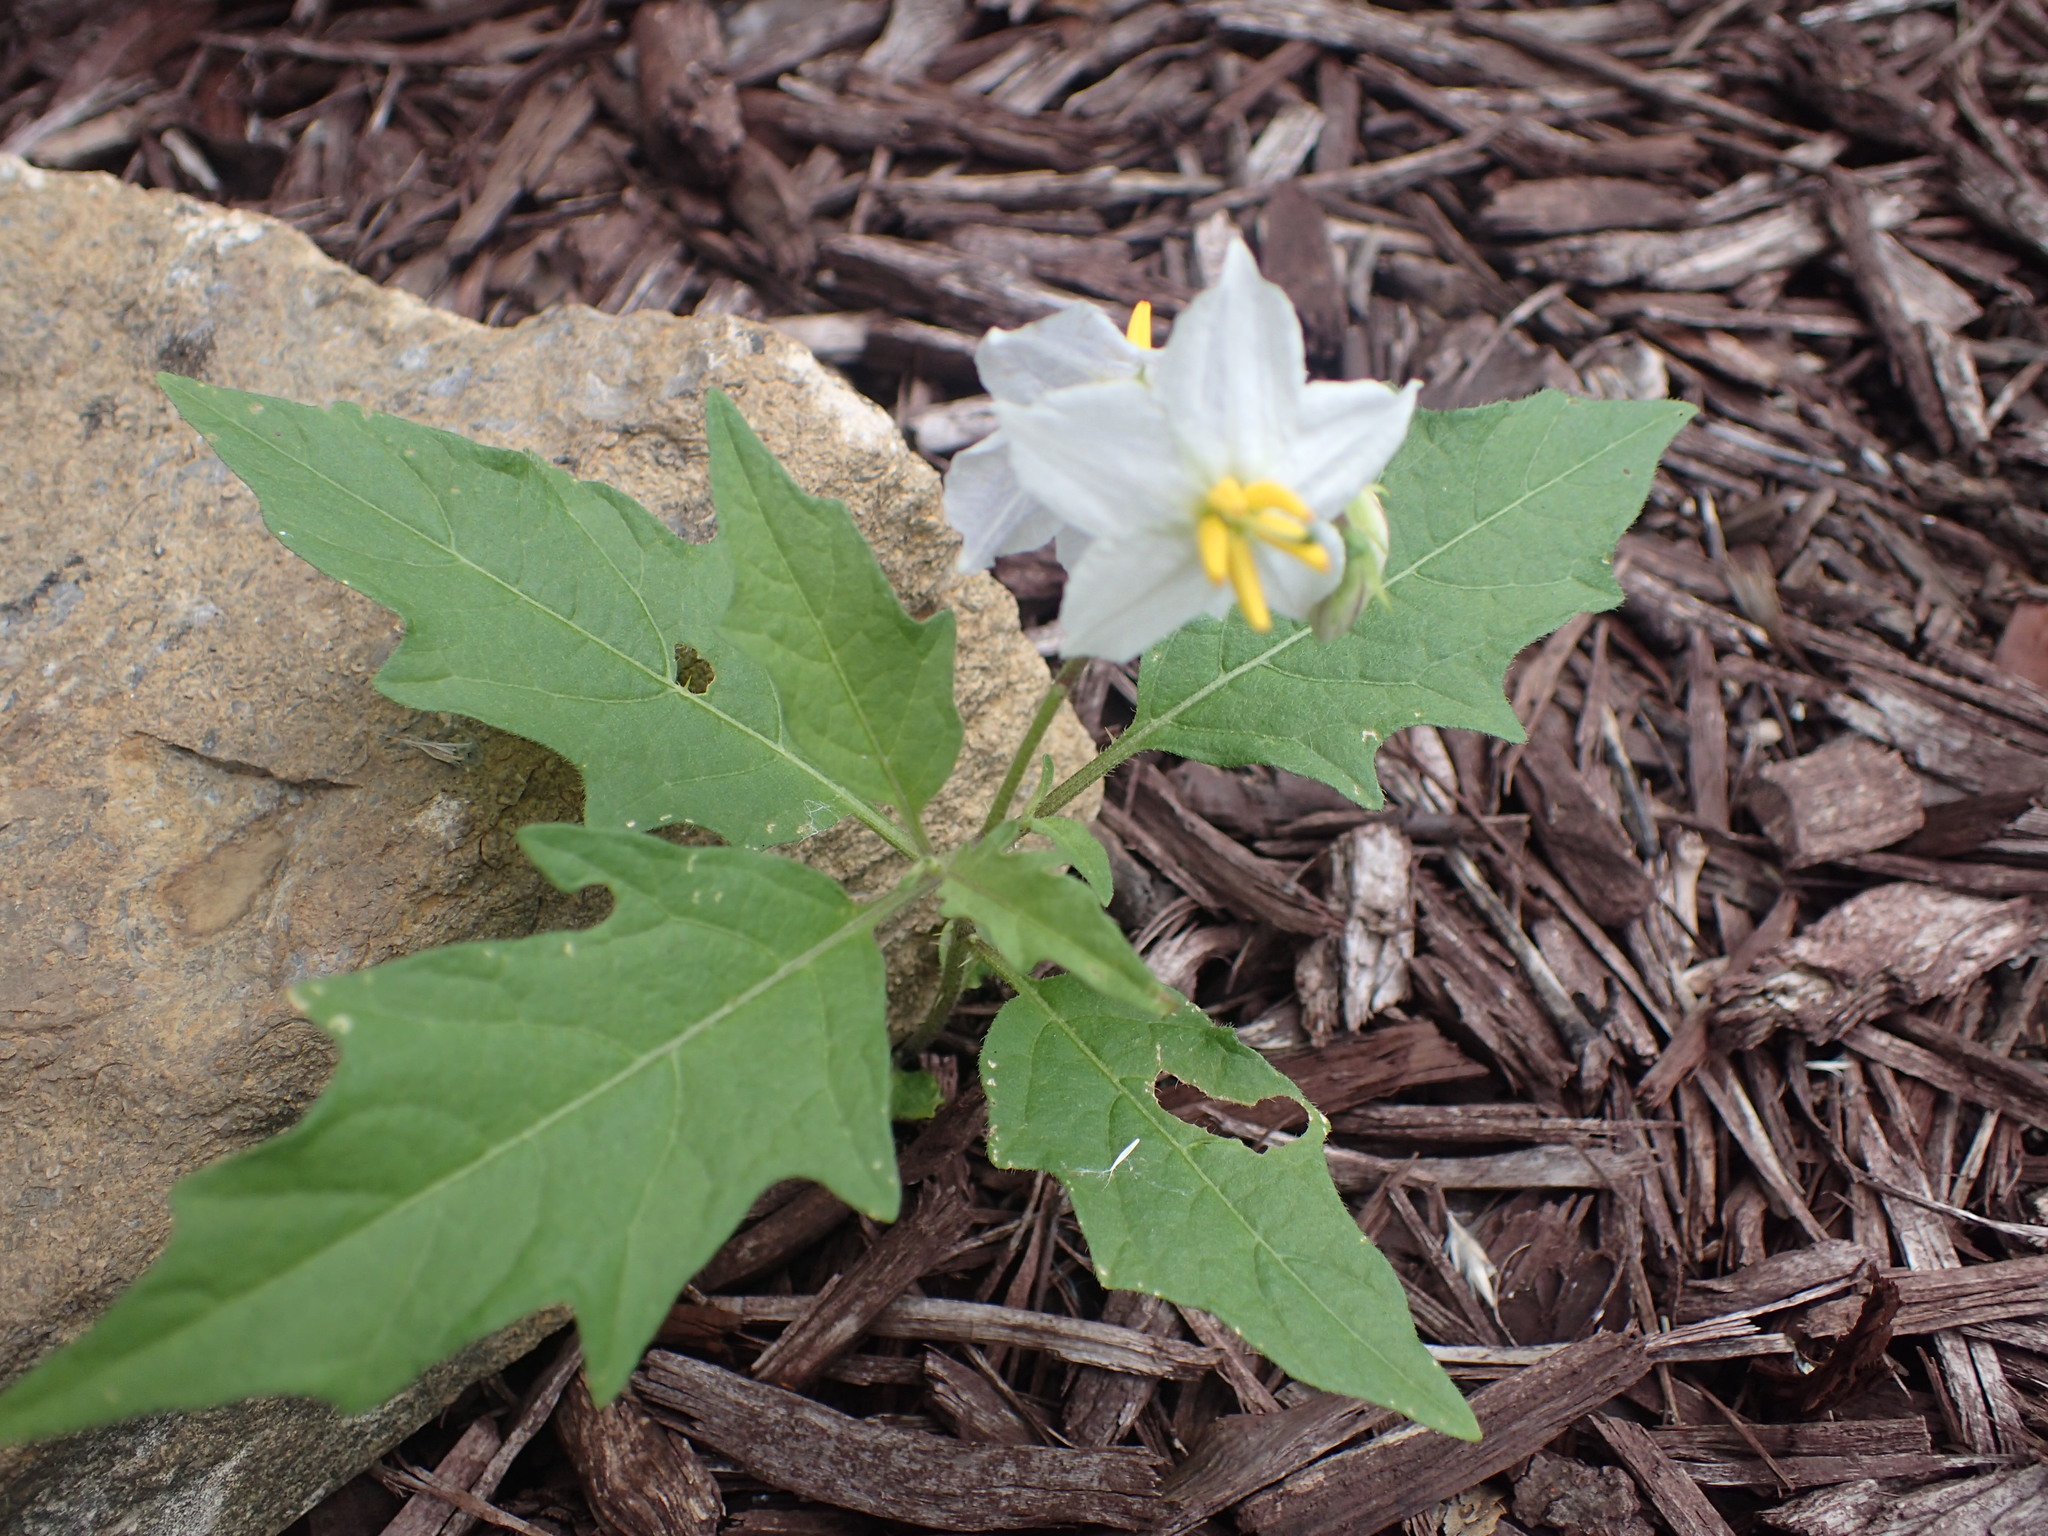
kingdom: Plantae
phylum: Tracheophyta
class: Magnoliopsida
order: Solanales
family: Solanaceae
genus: Solanum
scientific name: Solanum carolinense
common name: Horse-nettle
